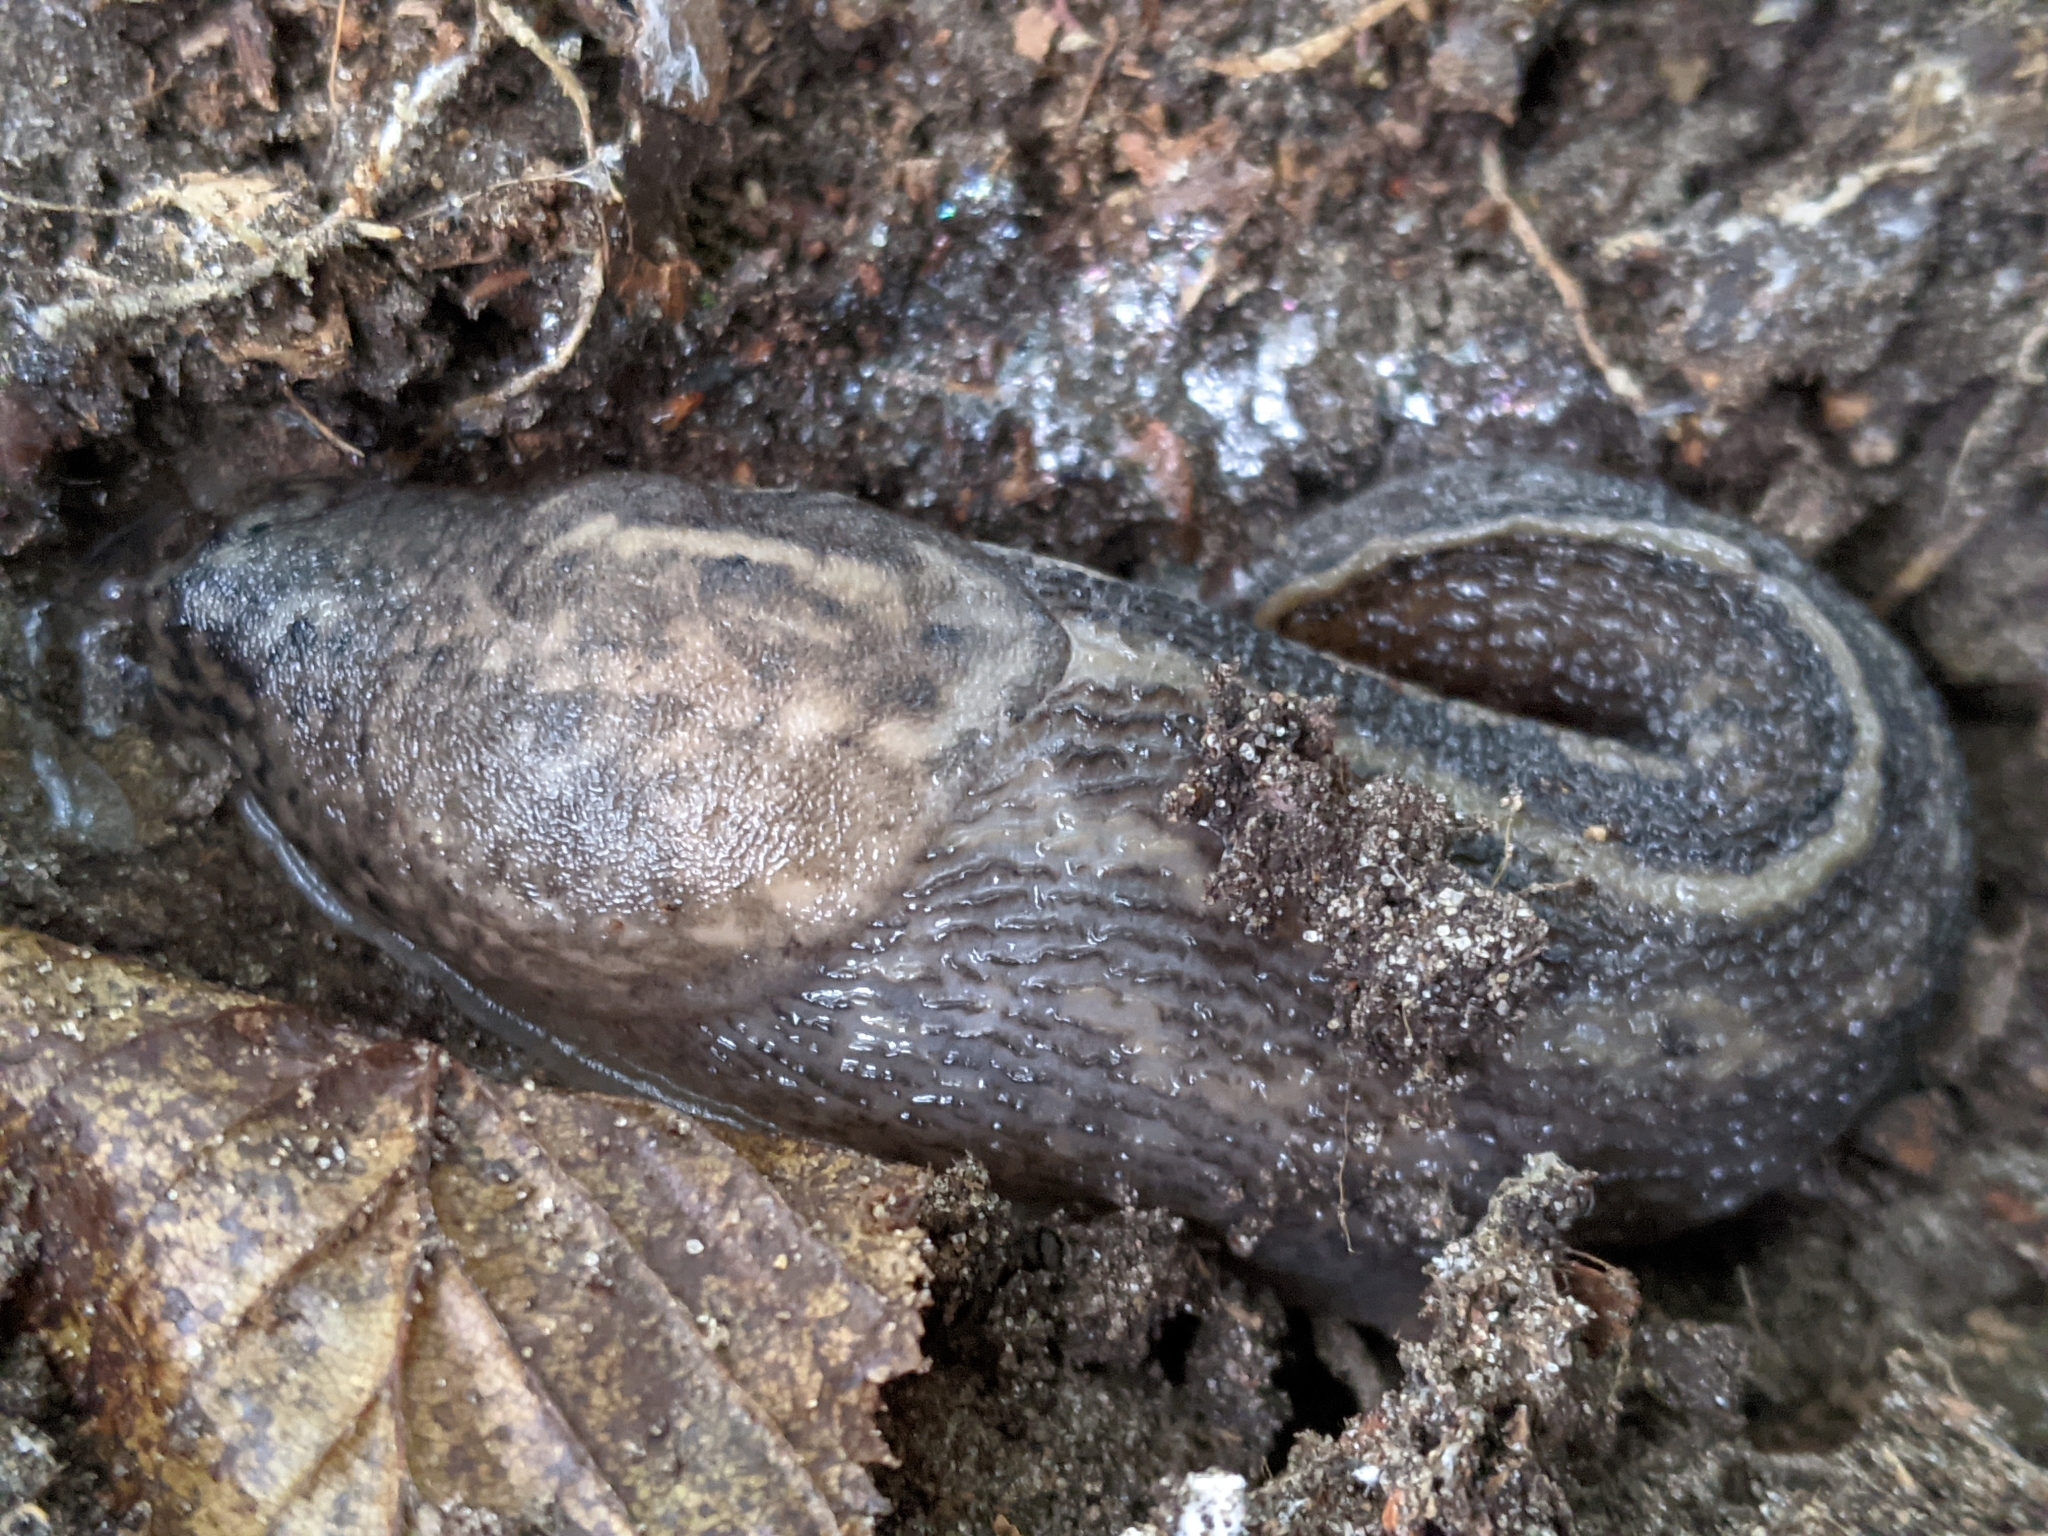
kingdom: Animalia
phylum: Mollusca
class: Gastropoda
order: Stylommatophora
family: Limacidae
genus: Limax
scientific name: Limax maximus
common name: Great grey slug
